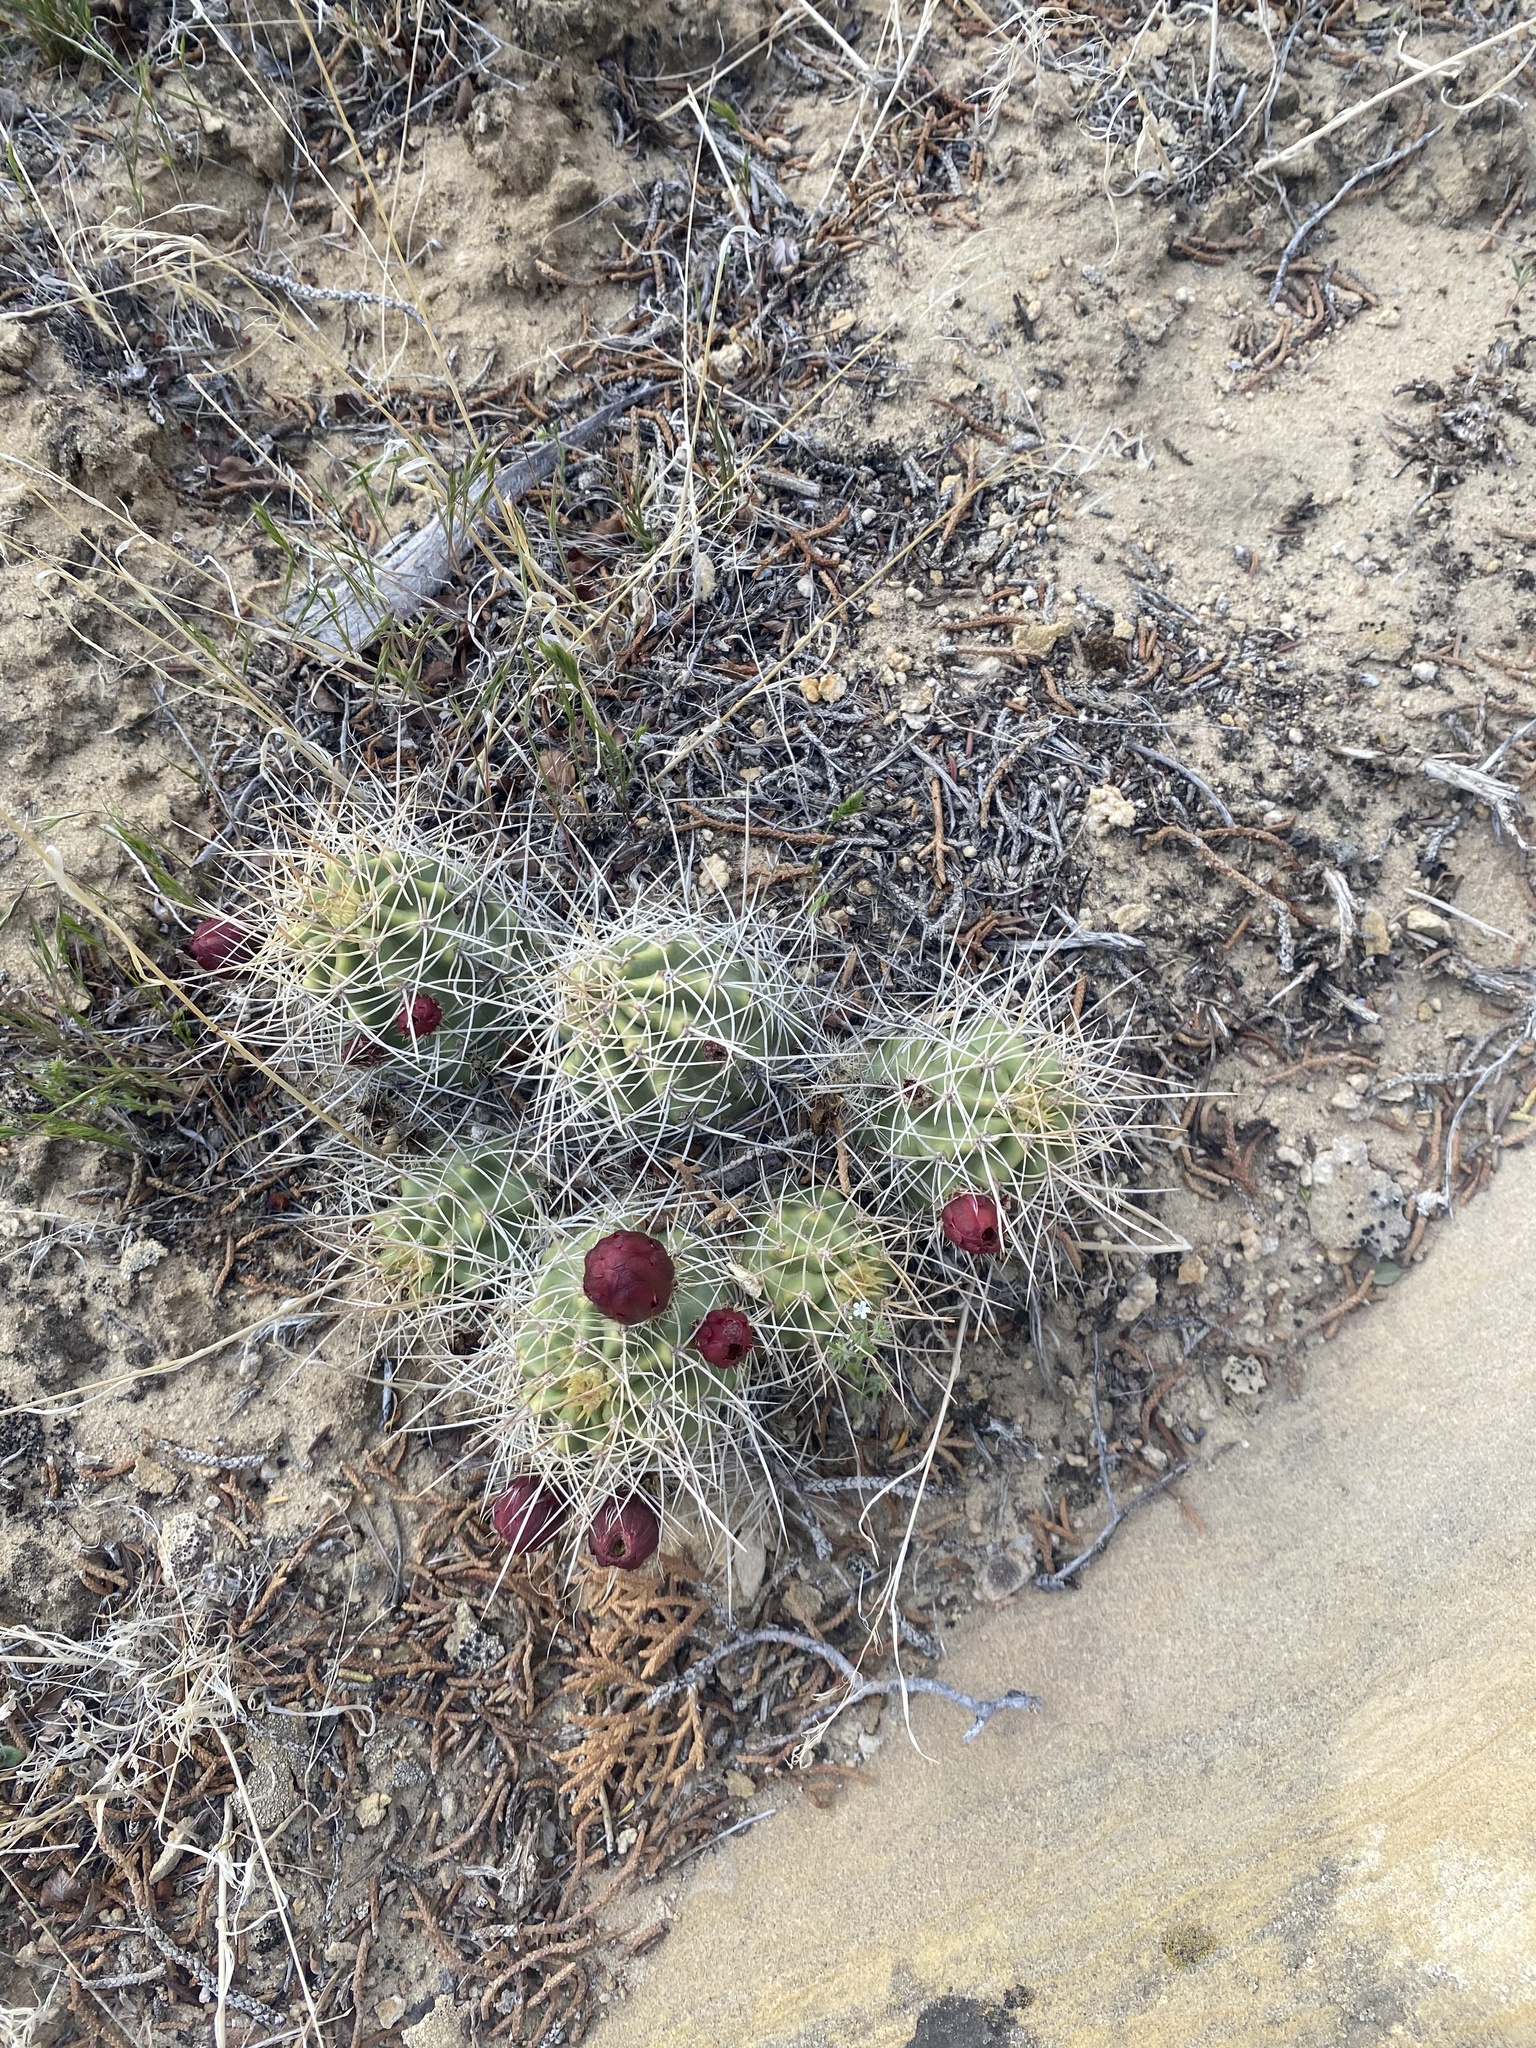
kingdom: Plantae
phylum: Tracheophyta
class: Magnoliopsida
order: Caryophyllales
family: Cactaceae
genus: Echinocereus
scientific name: Echinocereus triglochidiatus
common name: Claretcup hedgehog
